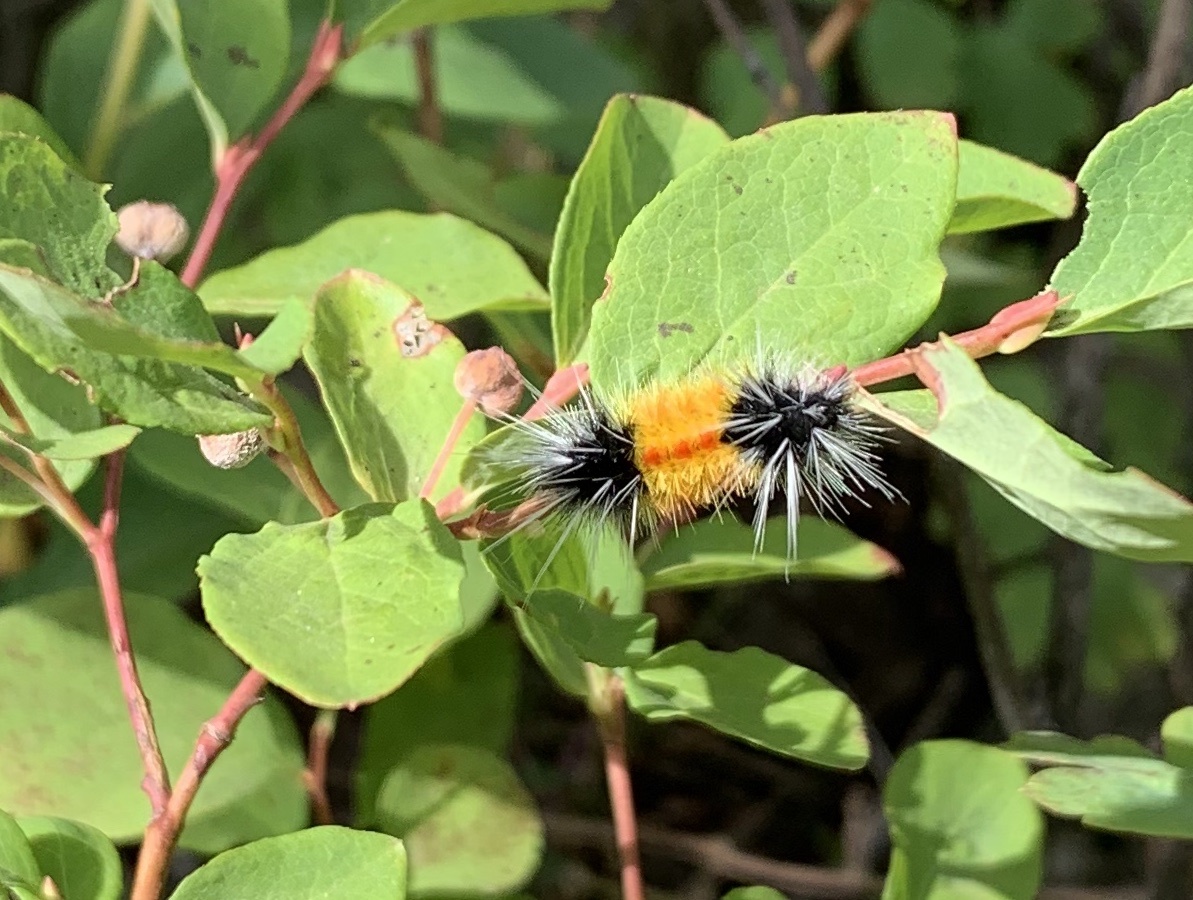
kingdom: Animalia
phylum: Arthropoda
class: Insecta
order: Lepidoptera
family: Erebidae
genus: Lophocampa
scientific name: Lophocampa maculata
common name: Spotted tussock moth
